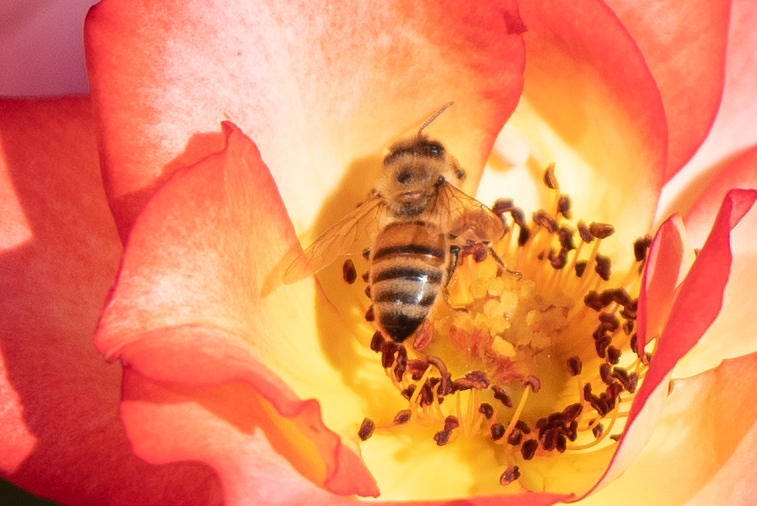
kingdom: Animalia
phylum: Arthropoda
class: Insecta
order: Hymenoptera
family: Apidae
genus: Apis
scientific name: Apis mellifera
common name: Honey bee
